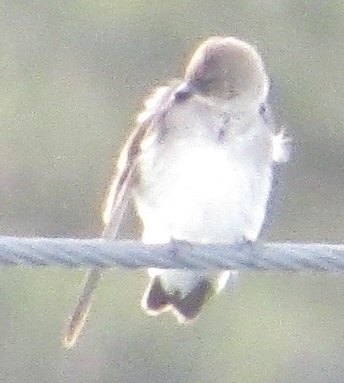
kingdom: Animalia
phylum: Chordata
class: Aves
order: Passeriformes
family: Hirundinidae
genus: Stelgidopteryx
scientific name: Stelgidopteryx serripennis
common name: Northern rough-winged swallow
